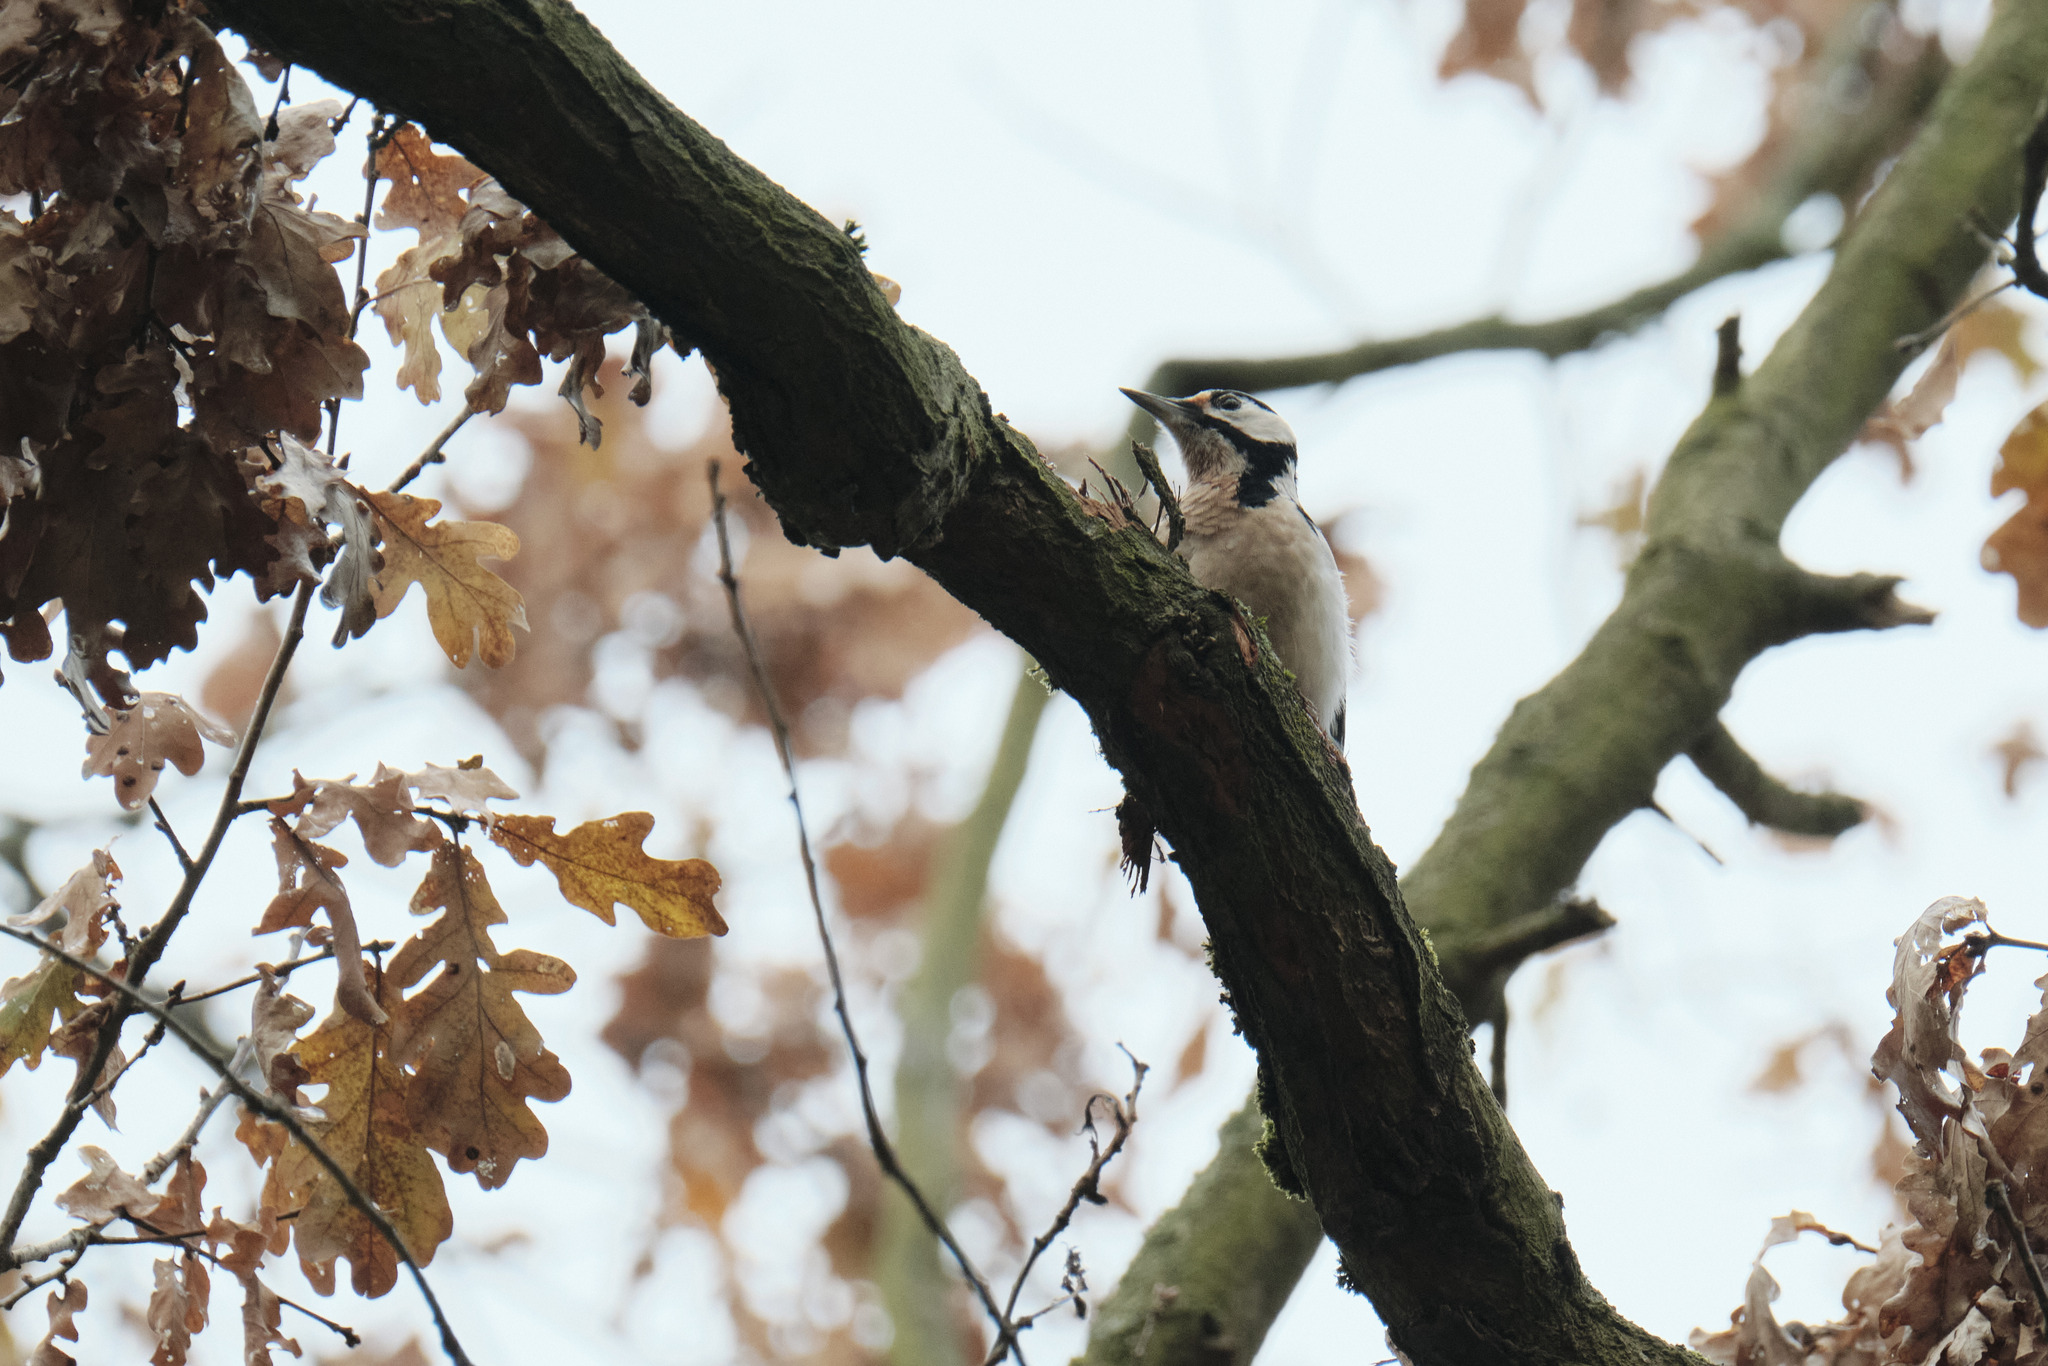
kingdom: Animalia
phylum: Chordata
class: Aves
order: Piciformes
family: Picidae
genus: Dendrocopos
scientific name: Dendrocopos major
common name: Great spotted woodpecker
